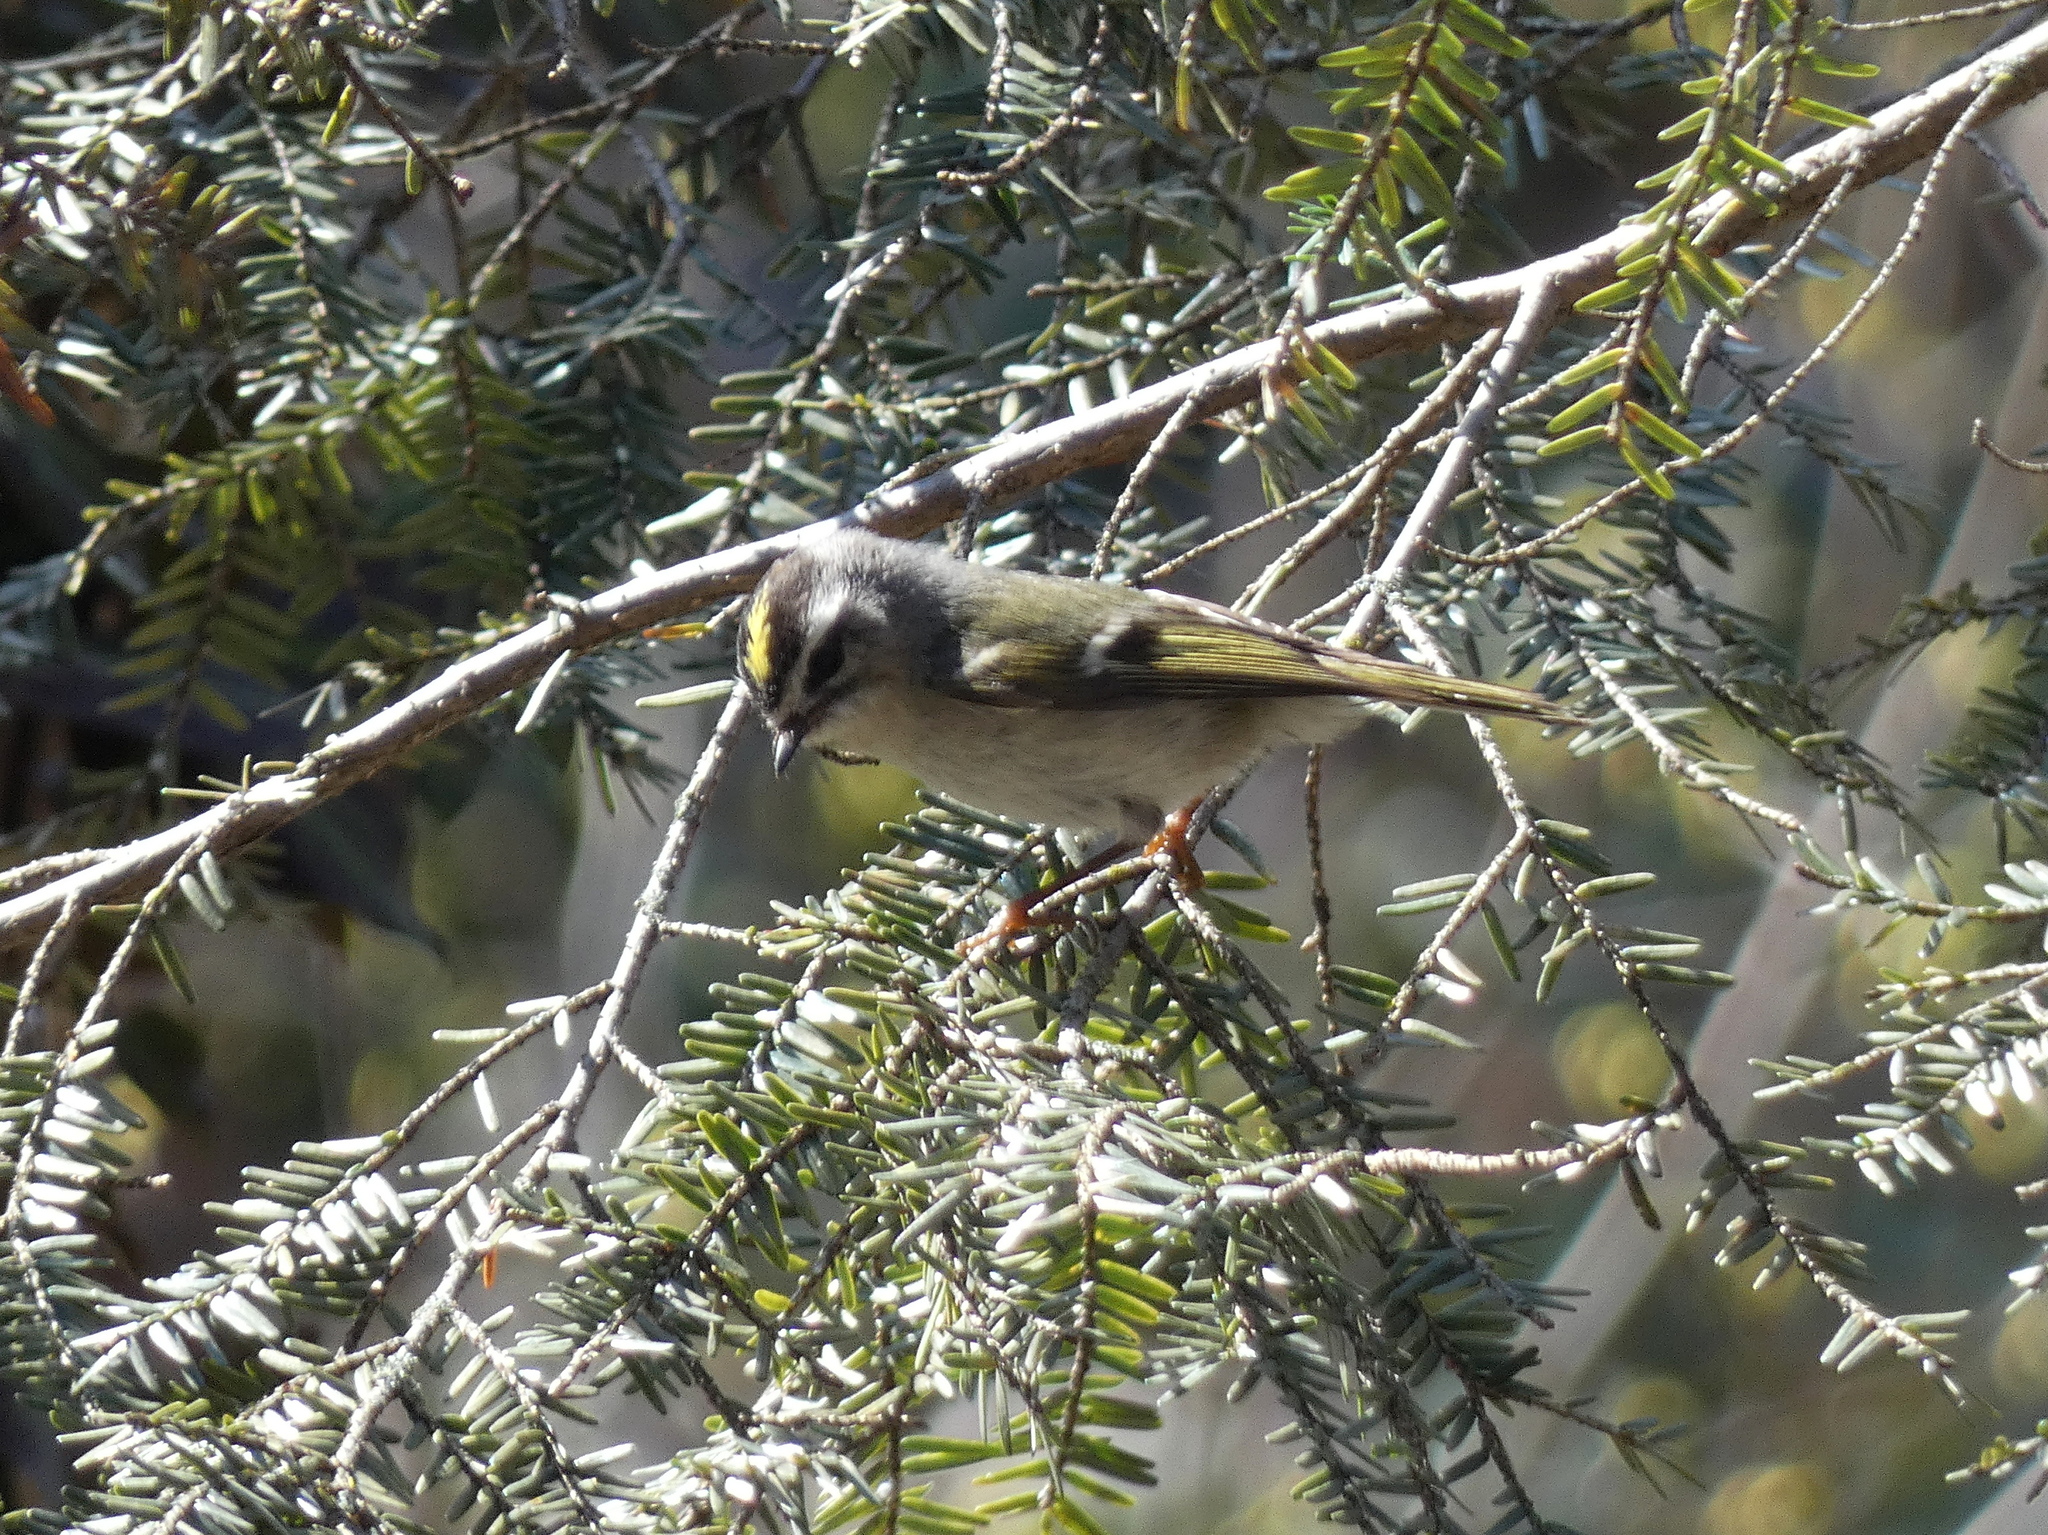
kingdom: Animalia
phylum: Chordata
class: Aves
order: Passeriformes
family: Regulidae
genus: Regulus
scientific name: Regulus satrapa
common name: Golden-crowned kinglet
